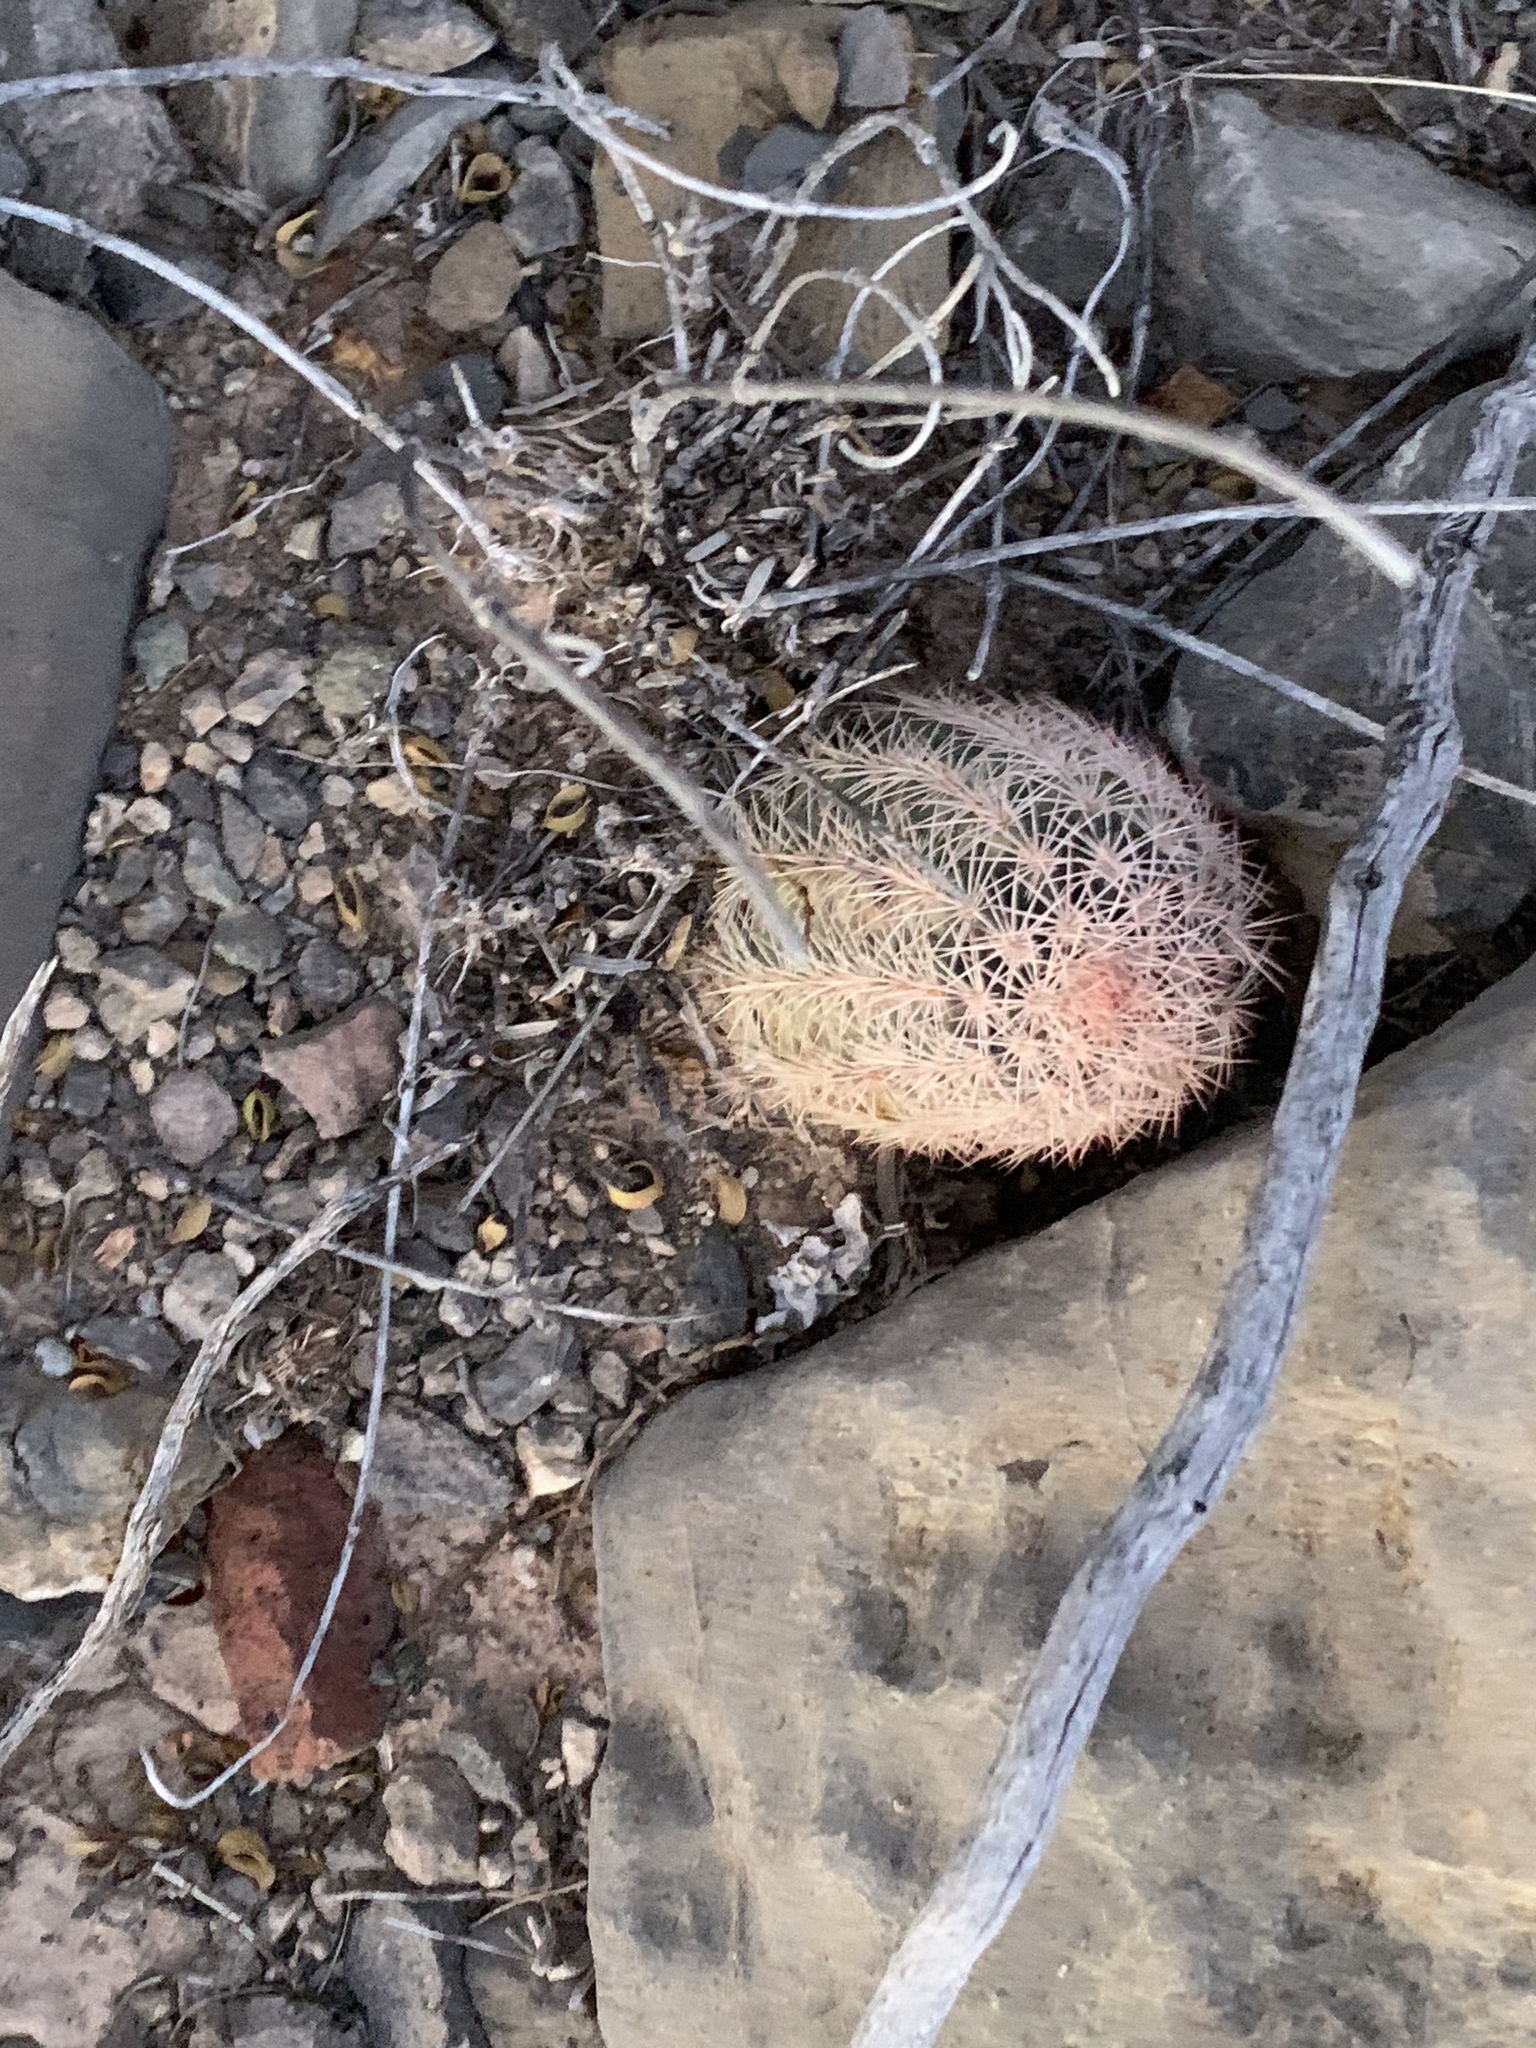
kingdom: Plantae
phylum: Tracheophyta
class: Magnoliopsida
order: Caryophyllales
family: Cactaceae
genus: Echinocereus
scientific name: Echinocereus dasyacanthus
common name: Spiny hedgehog cactus
